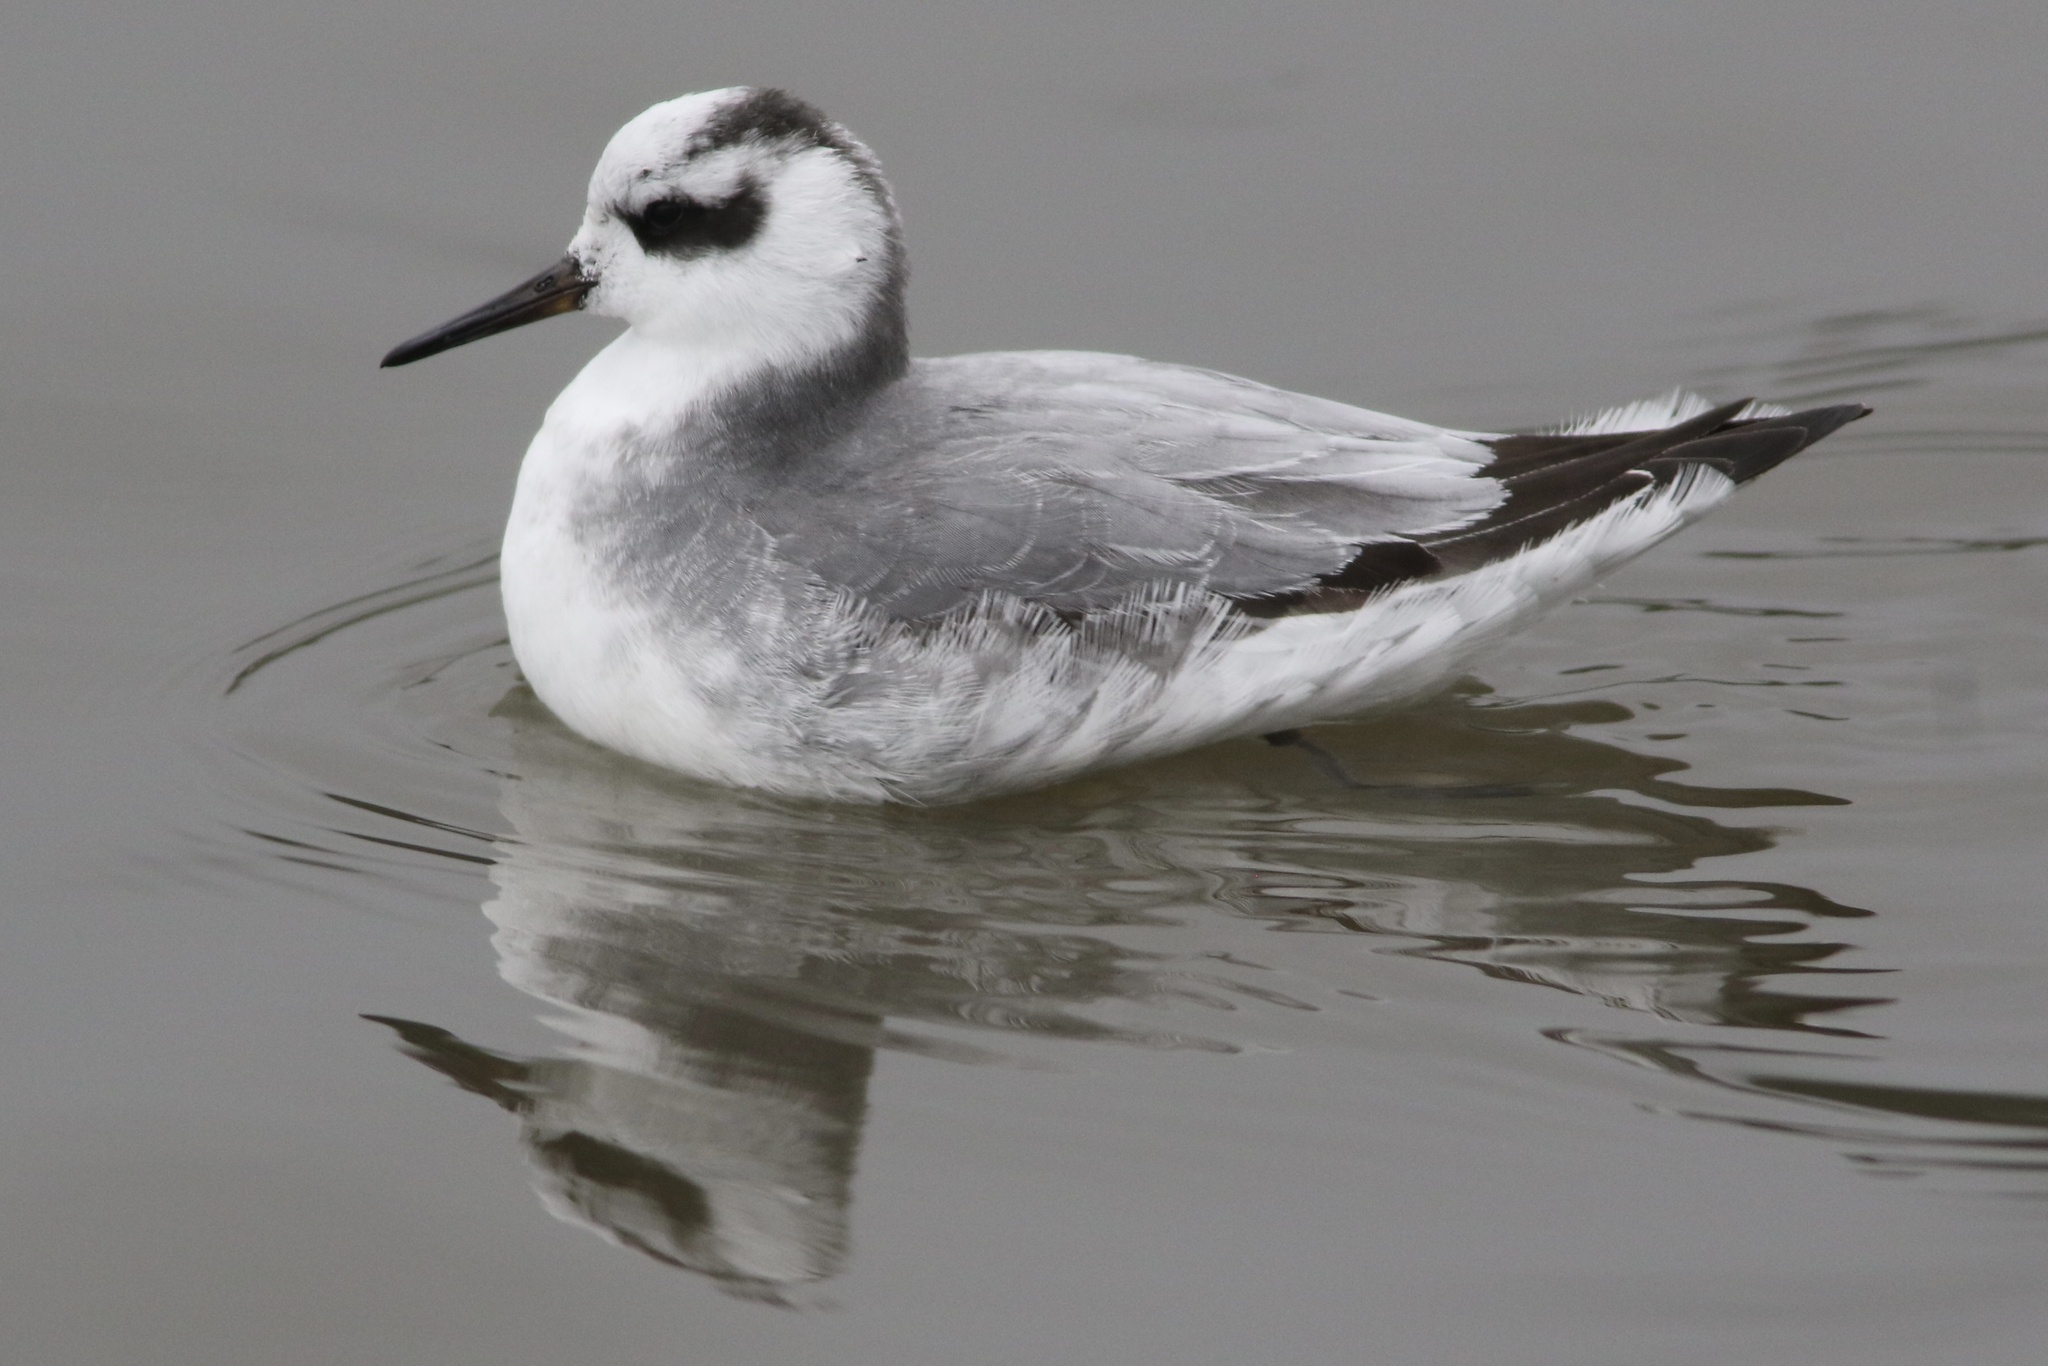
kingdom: Animalia
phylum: Chordata
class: Aves
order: Charadriiformes
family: Scolopacidae
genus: Phalaropus
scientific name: Phalaropus fulicarius
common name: Red phalarope
